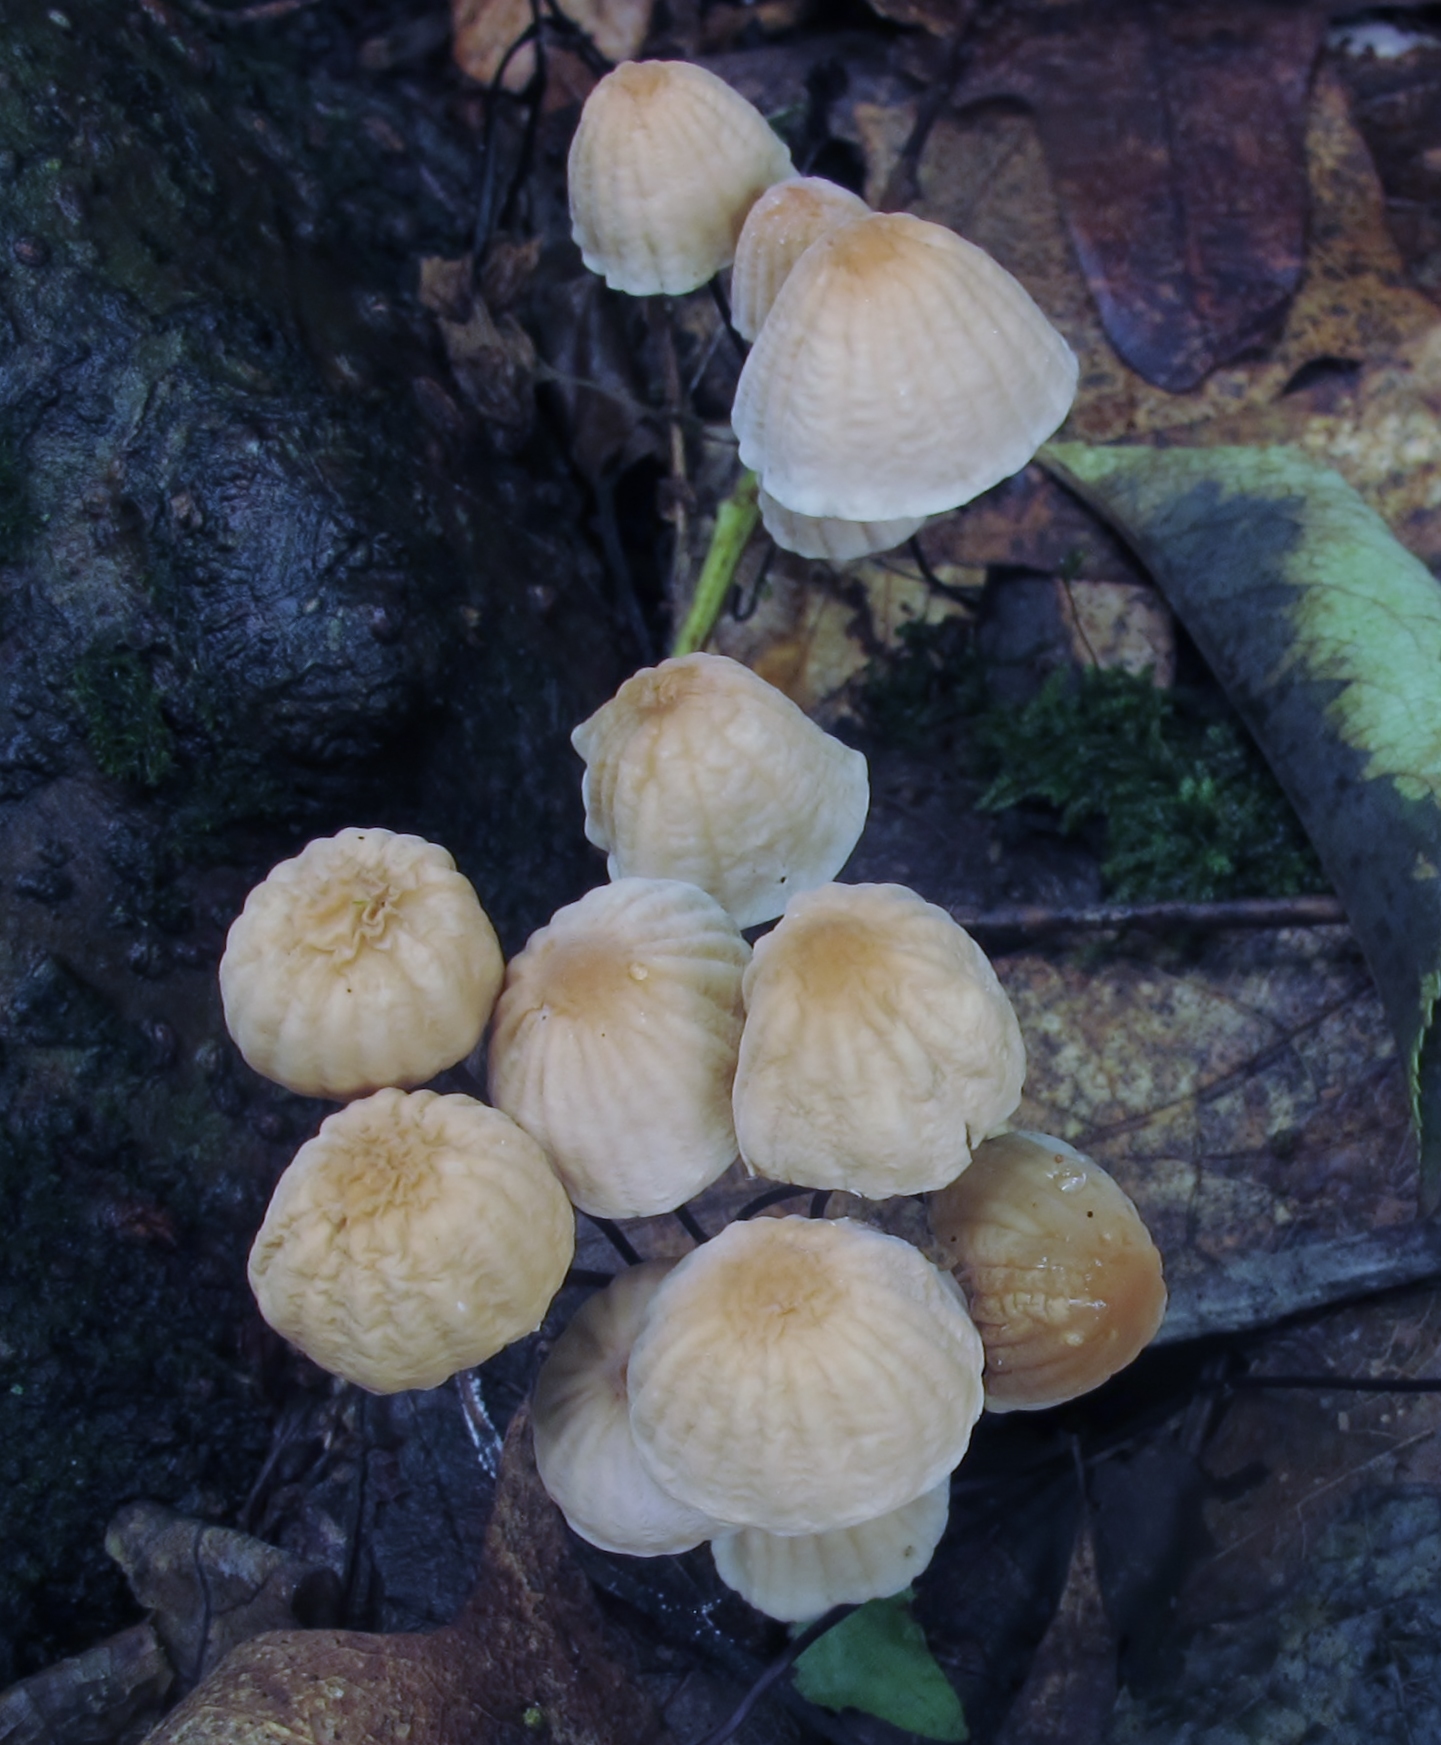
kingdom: Fungi
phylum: Basidiomycota
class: Agaricomycetes
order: Agaricales
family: Marasmiaceae
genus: Marasmius
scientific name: Marasmius siccus
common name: Orange pinwheel
